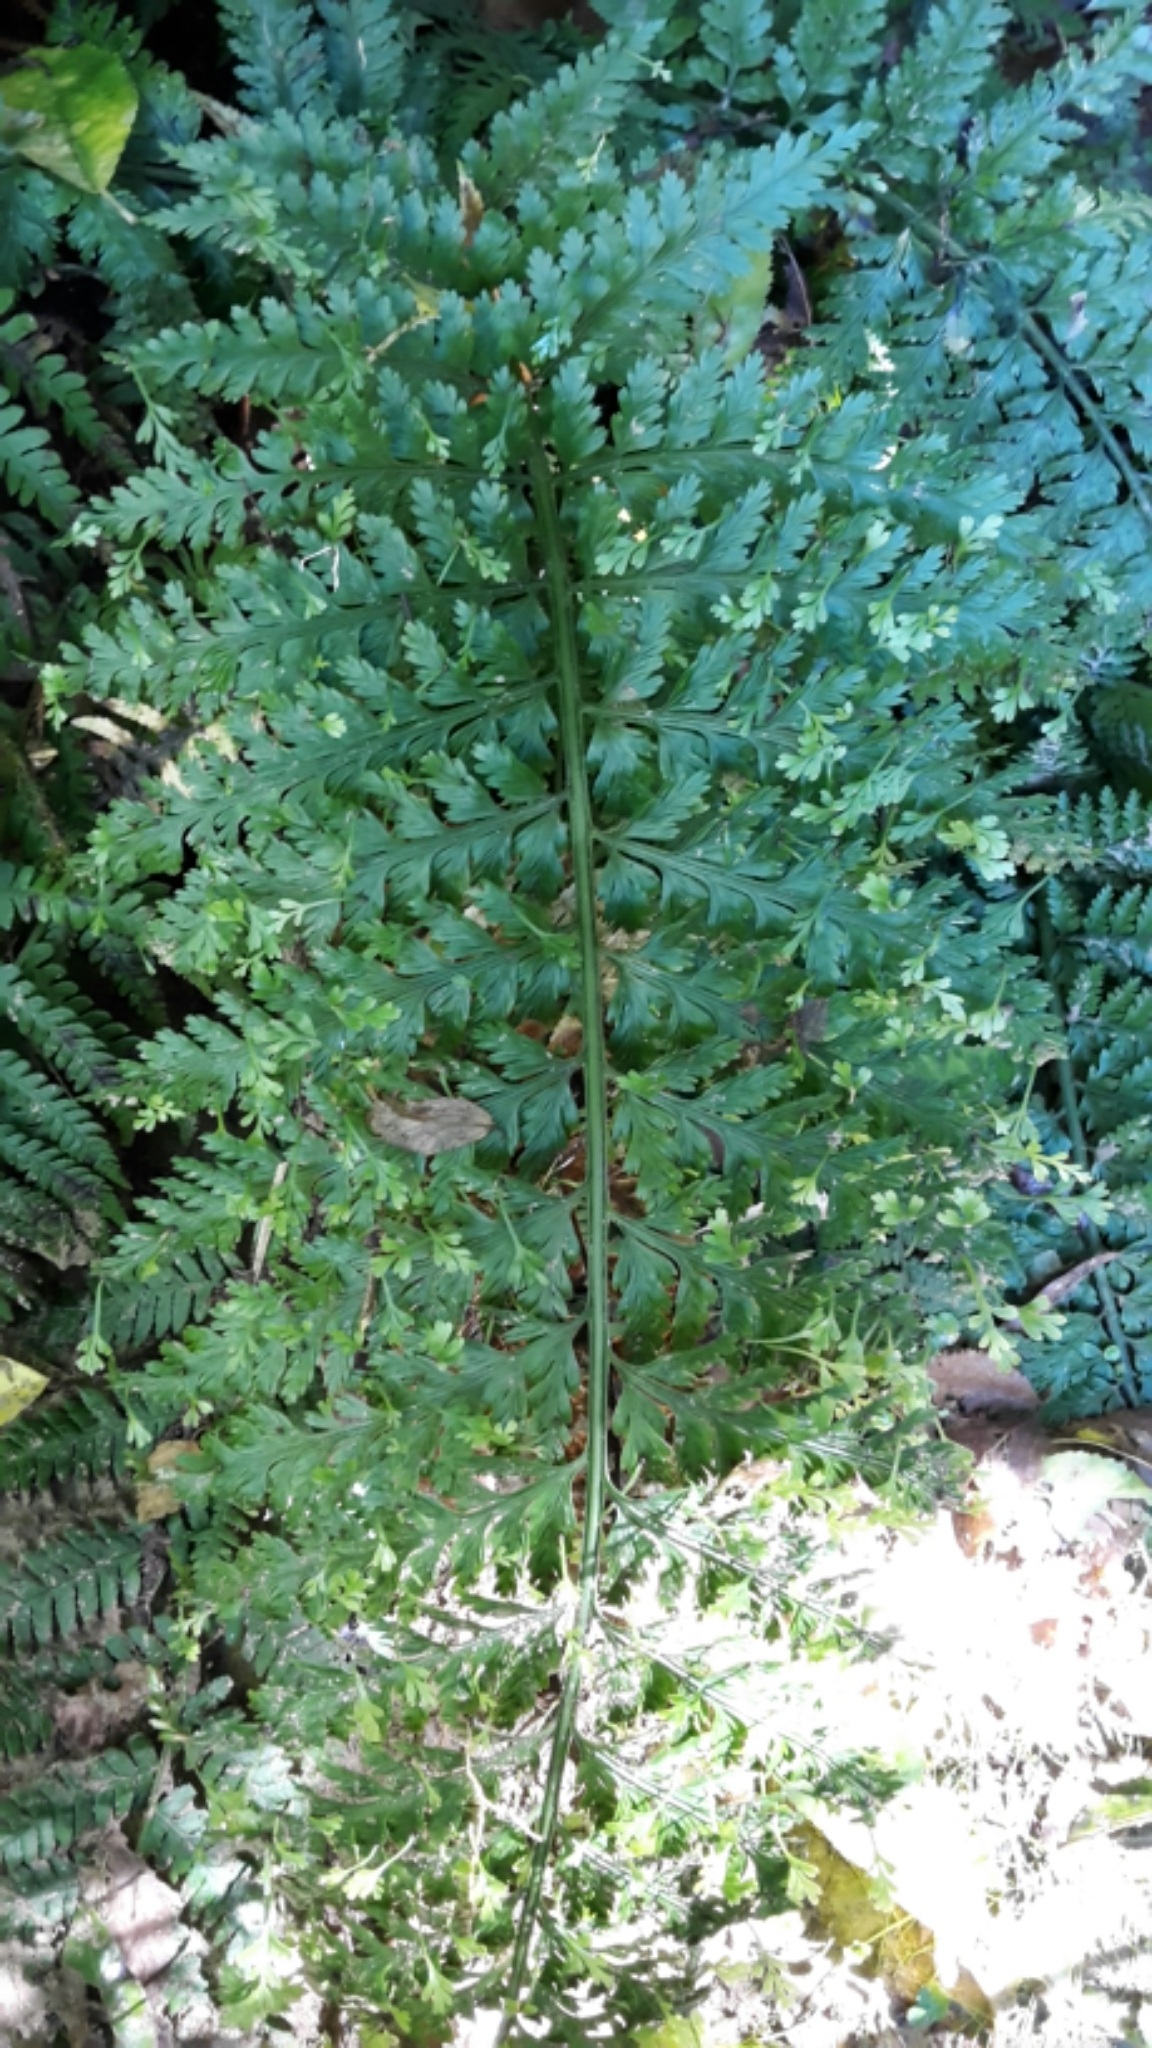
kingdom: Plantae
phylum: Tracheophyta
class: Polypodiopsida
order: Polypodiales
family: Aspleniaceae
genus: Asplenium
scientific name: Asplenium bulbiferum
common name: Mother fern
